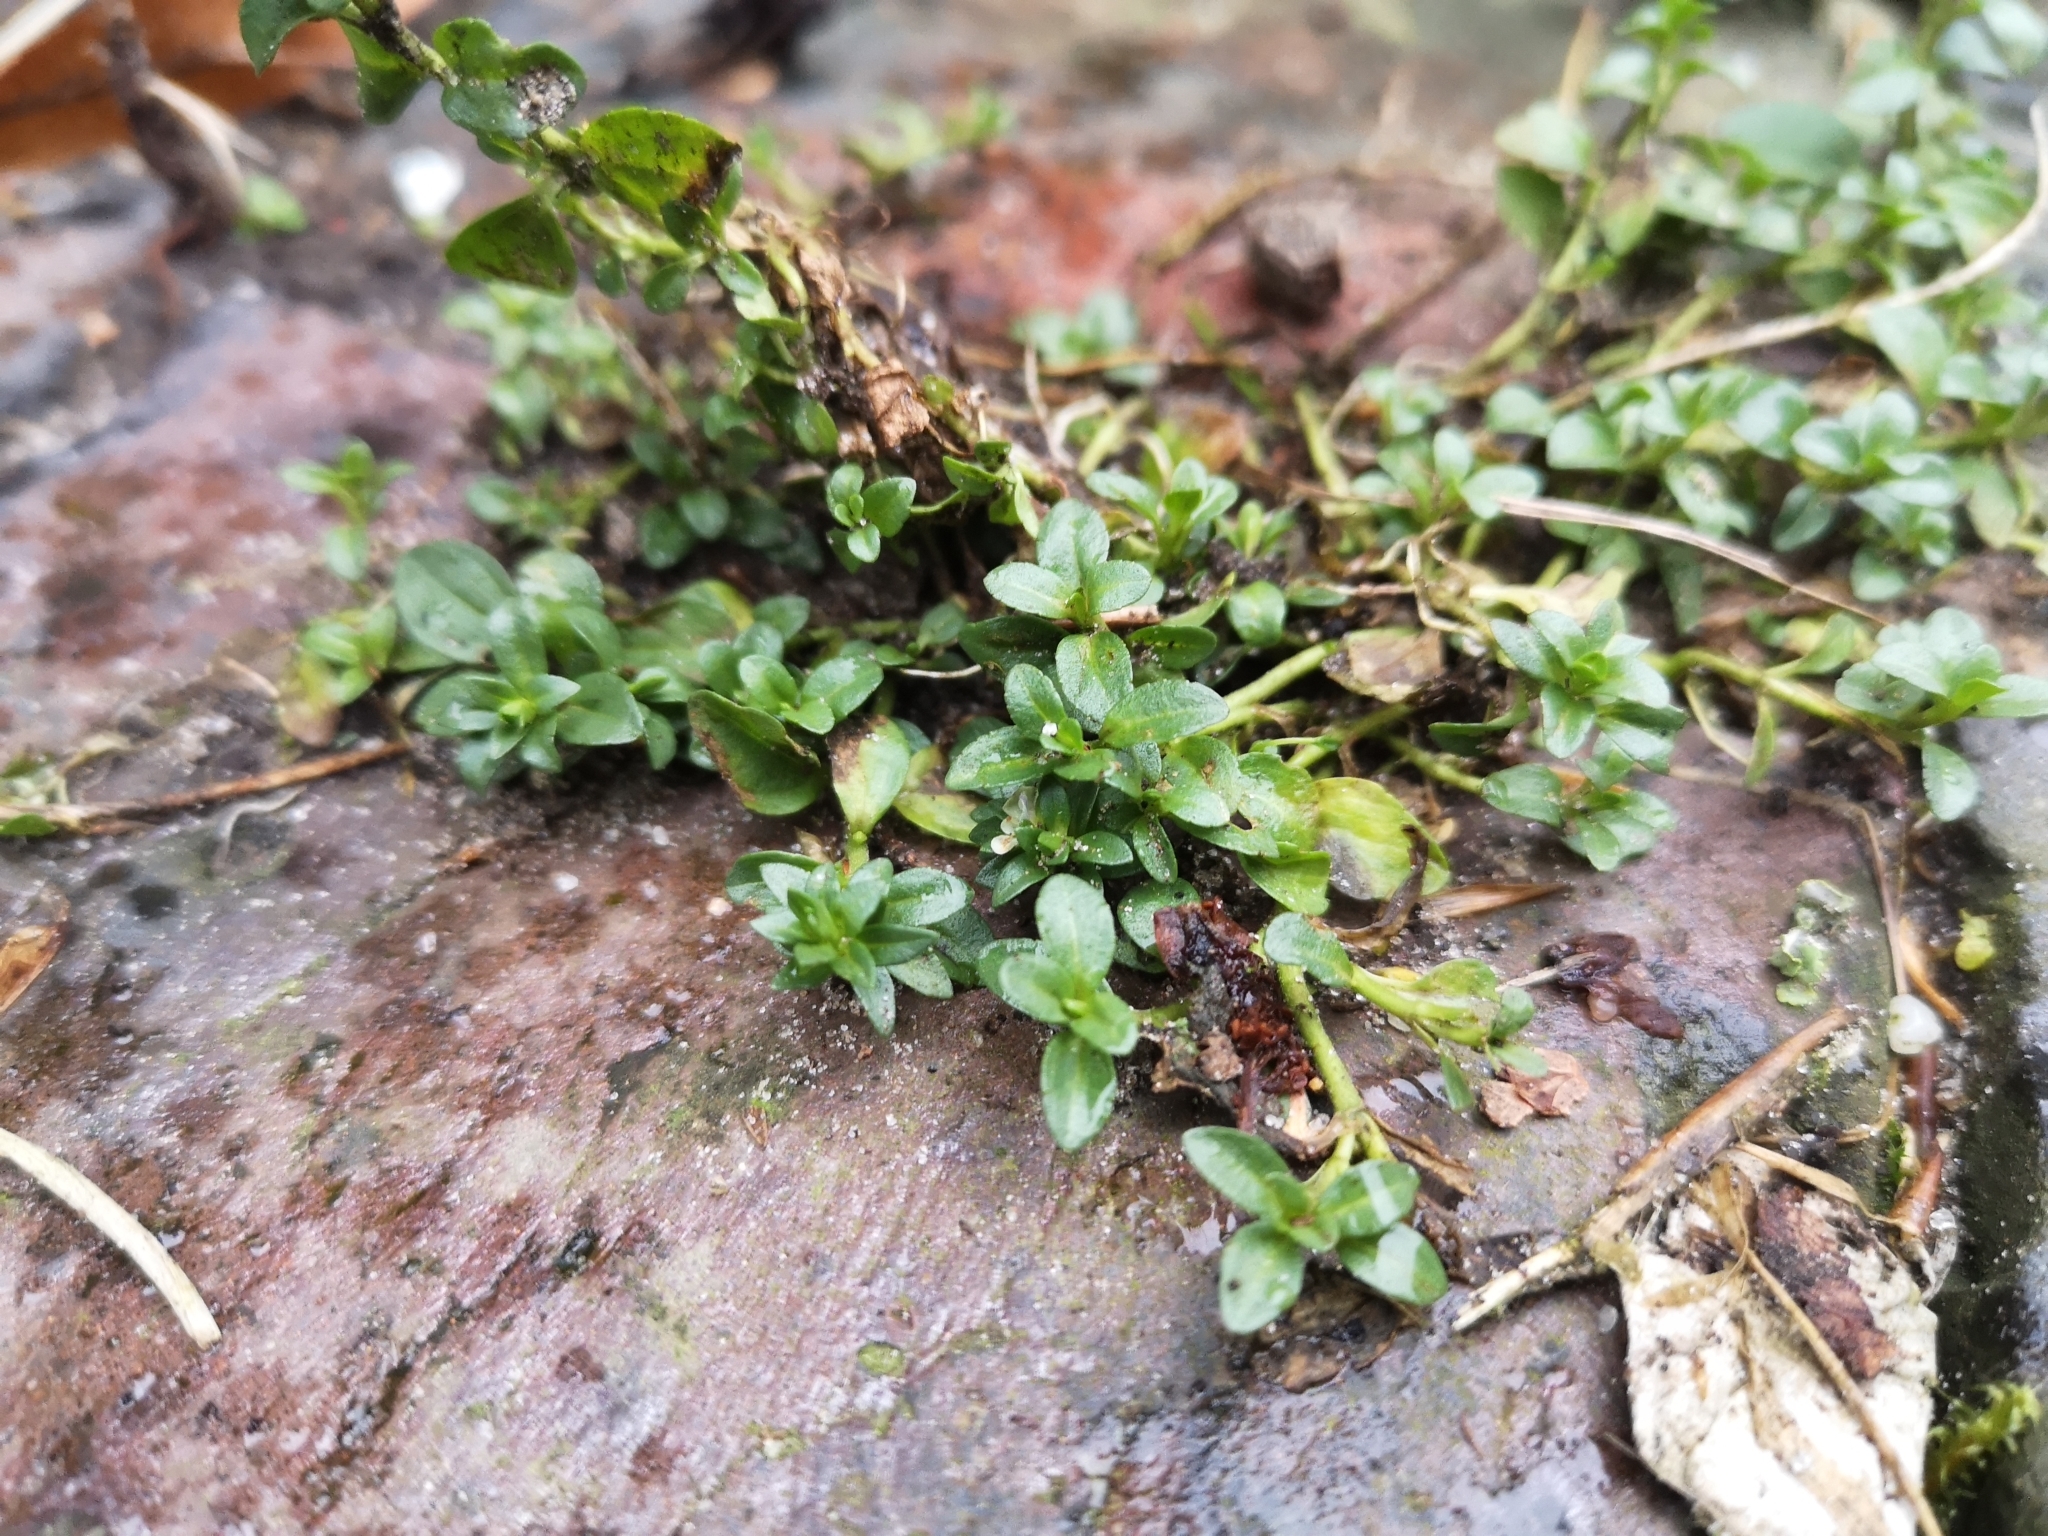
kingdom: Plantae
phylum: Tracheophyta
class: Magnoliopsida
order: Lamiales
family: Plantaginaceae
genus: Veronica
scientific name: Veronica serpyllifolia
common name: Thyme-leaved speedwell
